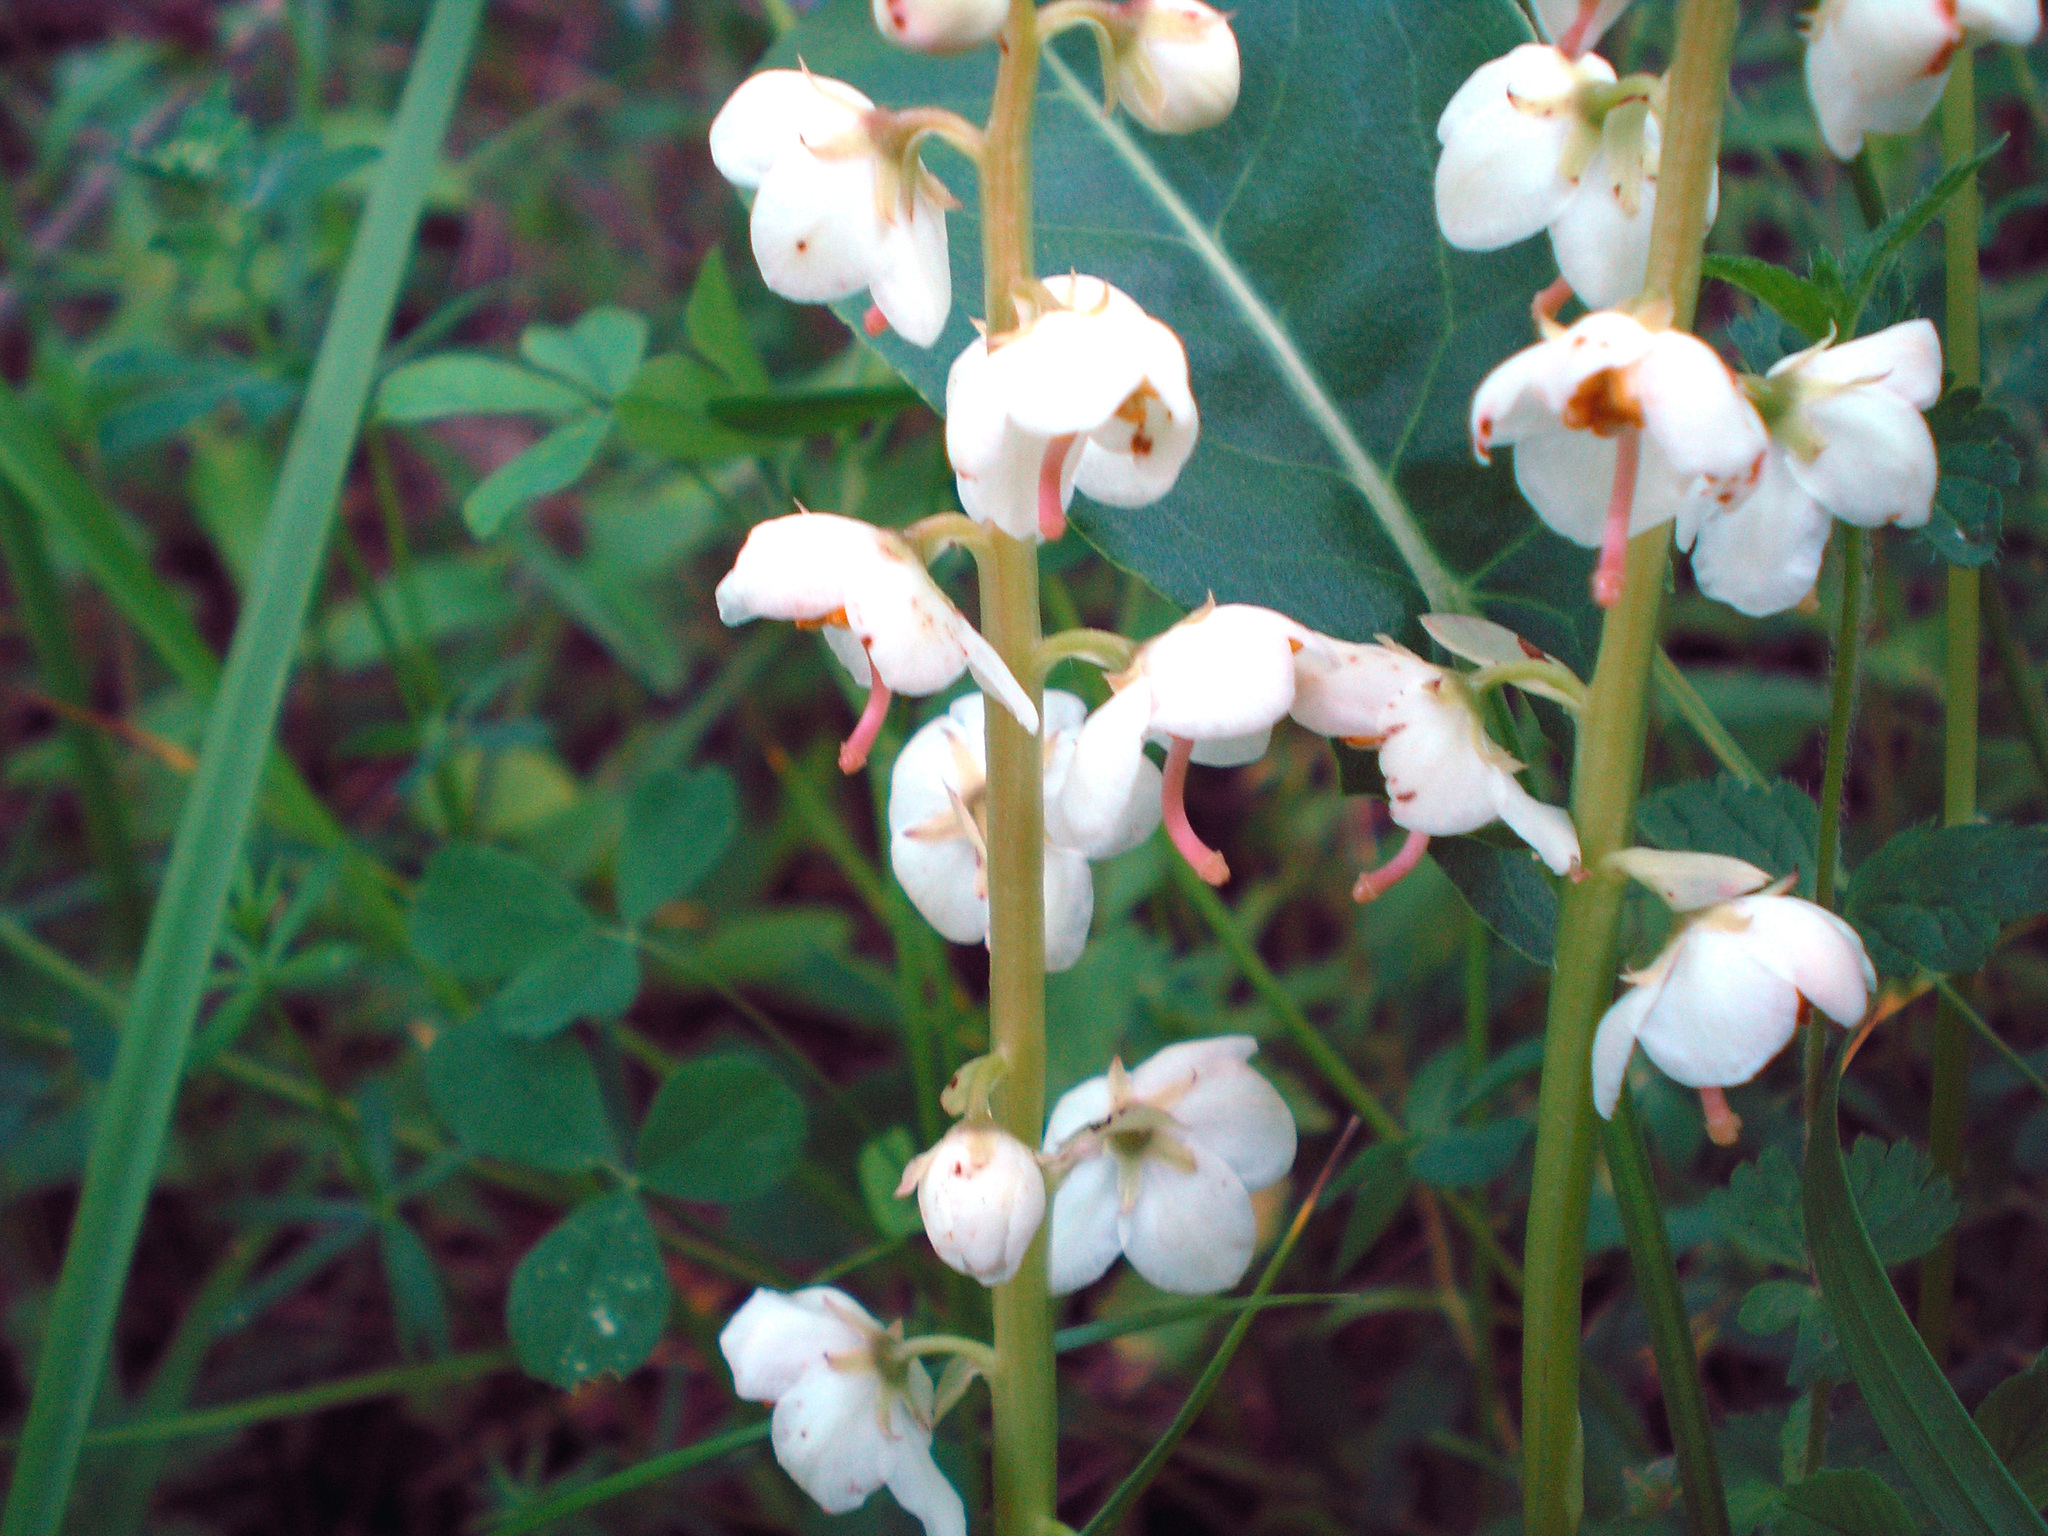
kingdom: Plantae
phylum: Tracheophyta
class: Magnoliopsida
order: Ericales
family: Ericaceae
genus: Pyrola
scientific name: Pyrola rotundifolia
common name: Round-leaved wintergreen
